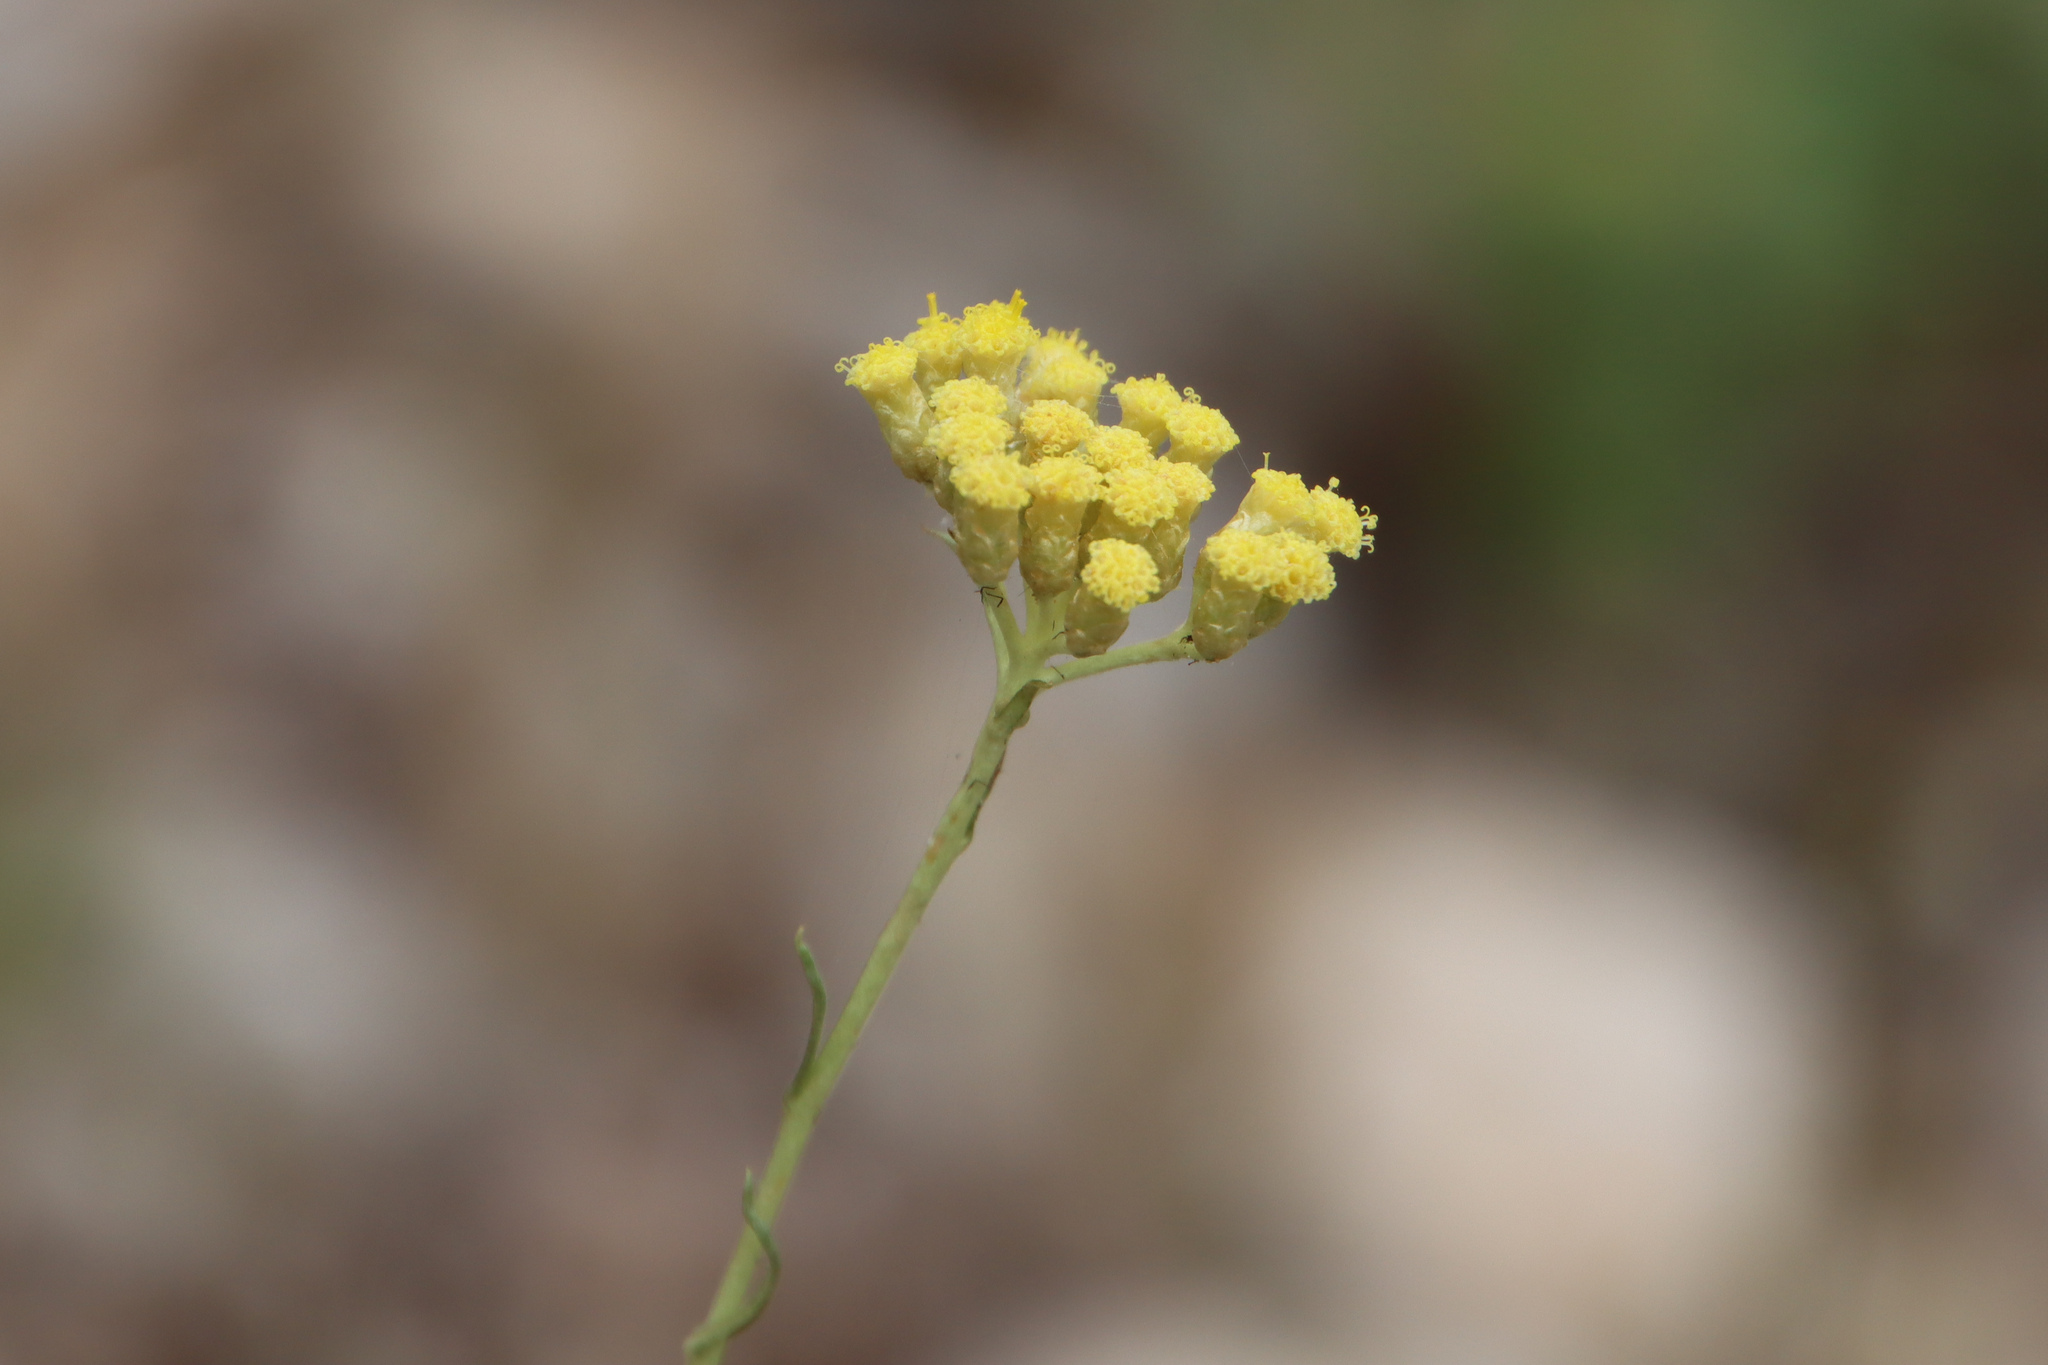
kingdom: Plantae
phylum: Tracheophyta
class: Magnoliopsida
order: Asterales
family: Asteraceae
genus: Helichrysum
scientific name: Helichrysum italicum
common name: Curryplant
